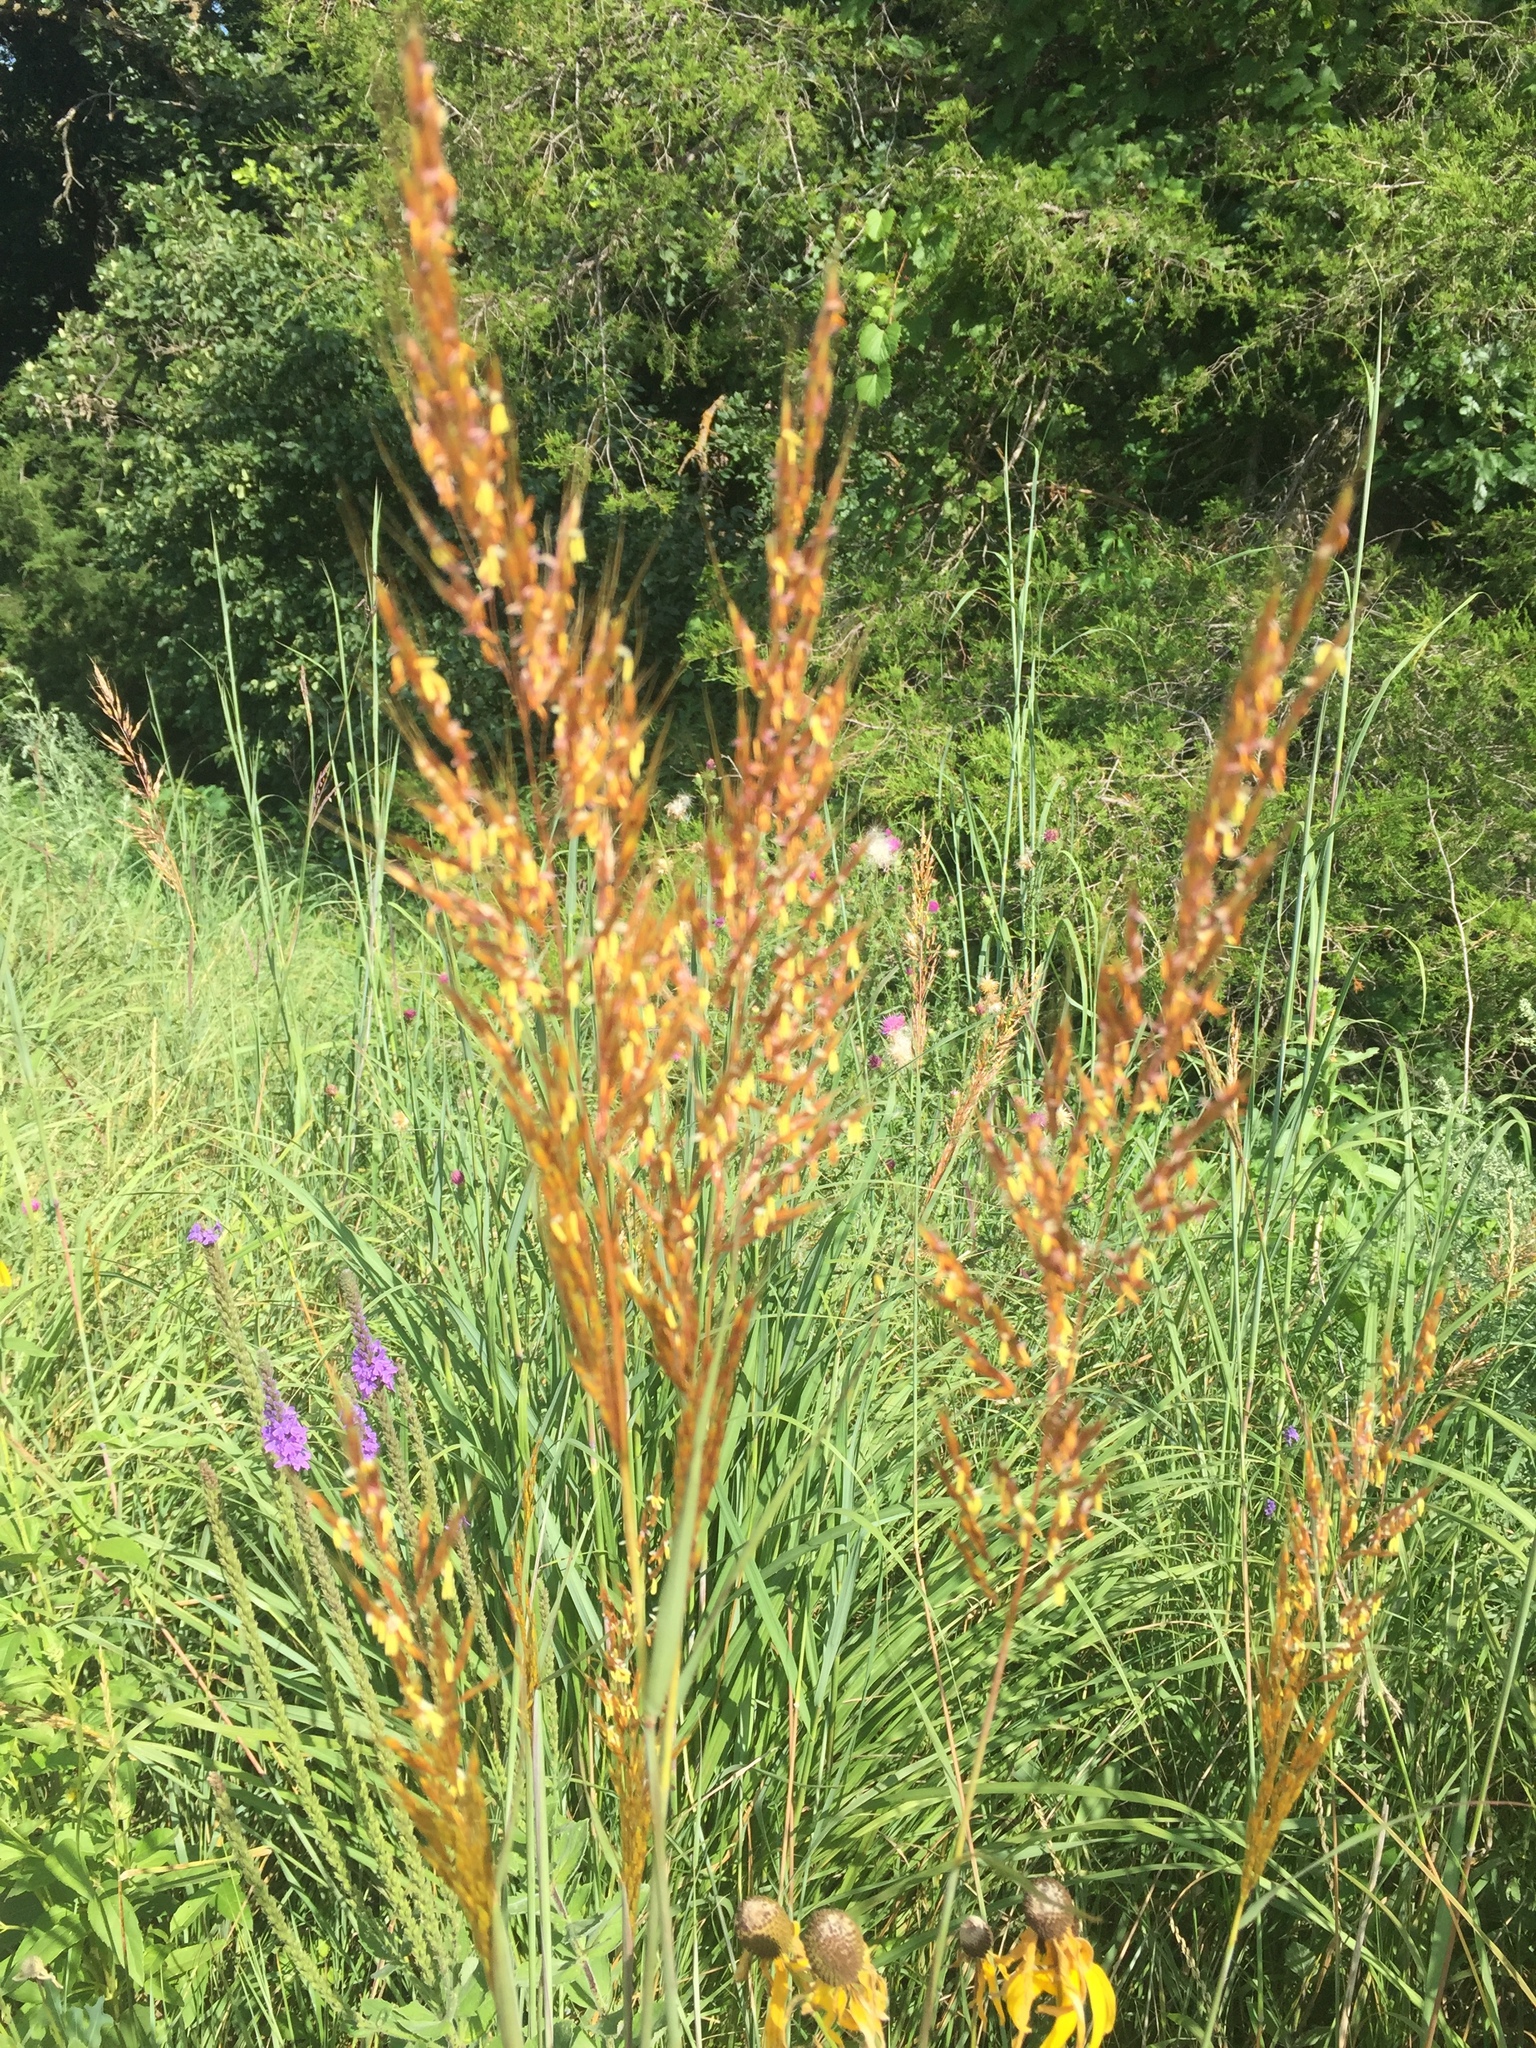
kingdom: Plantae
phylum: Tracheophyta
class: Liliopsida
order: Poales
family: Poaceae
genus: Sorghastrum
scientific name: Sorghastrum nutans
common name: Indian grass
